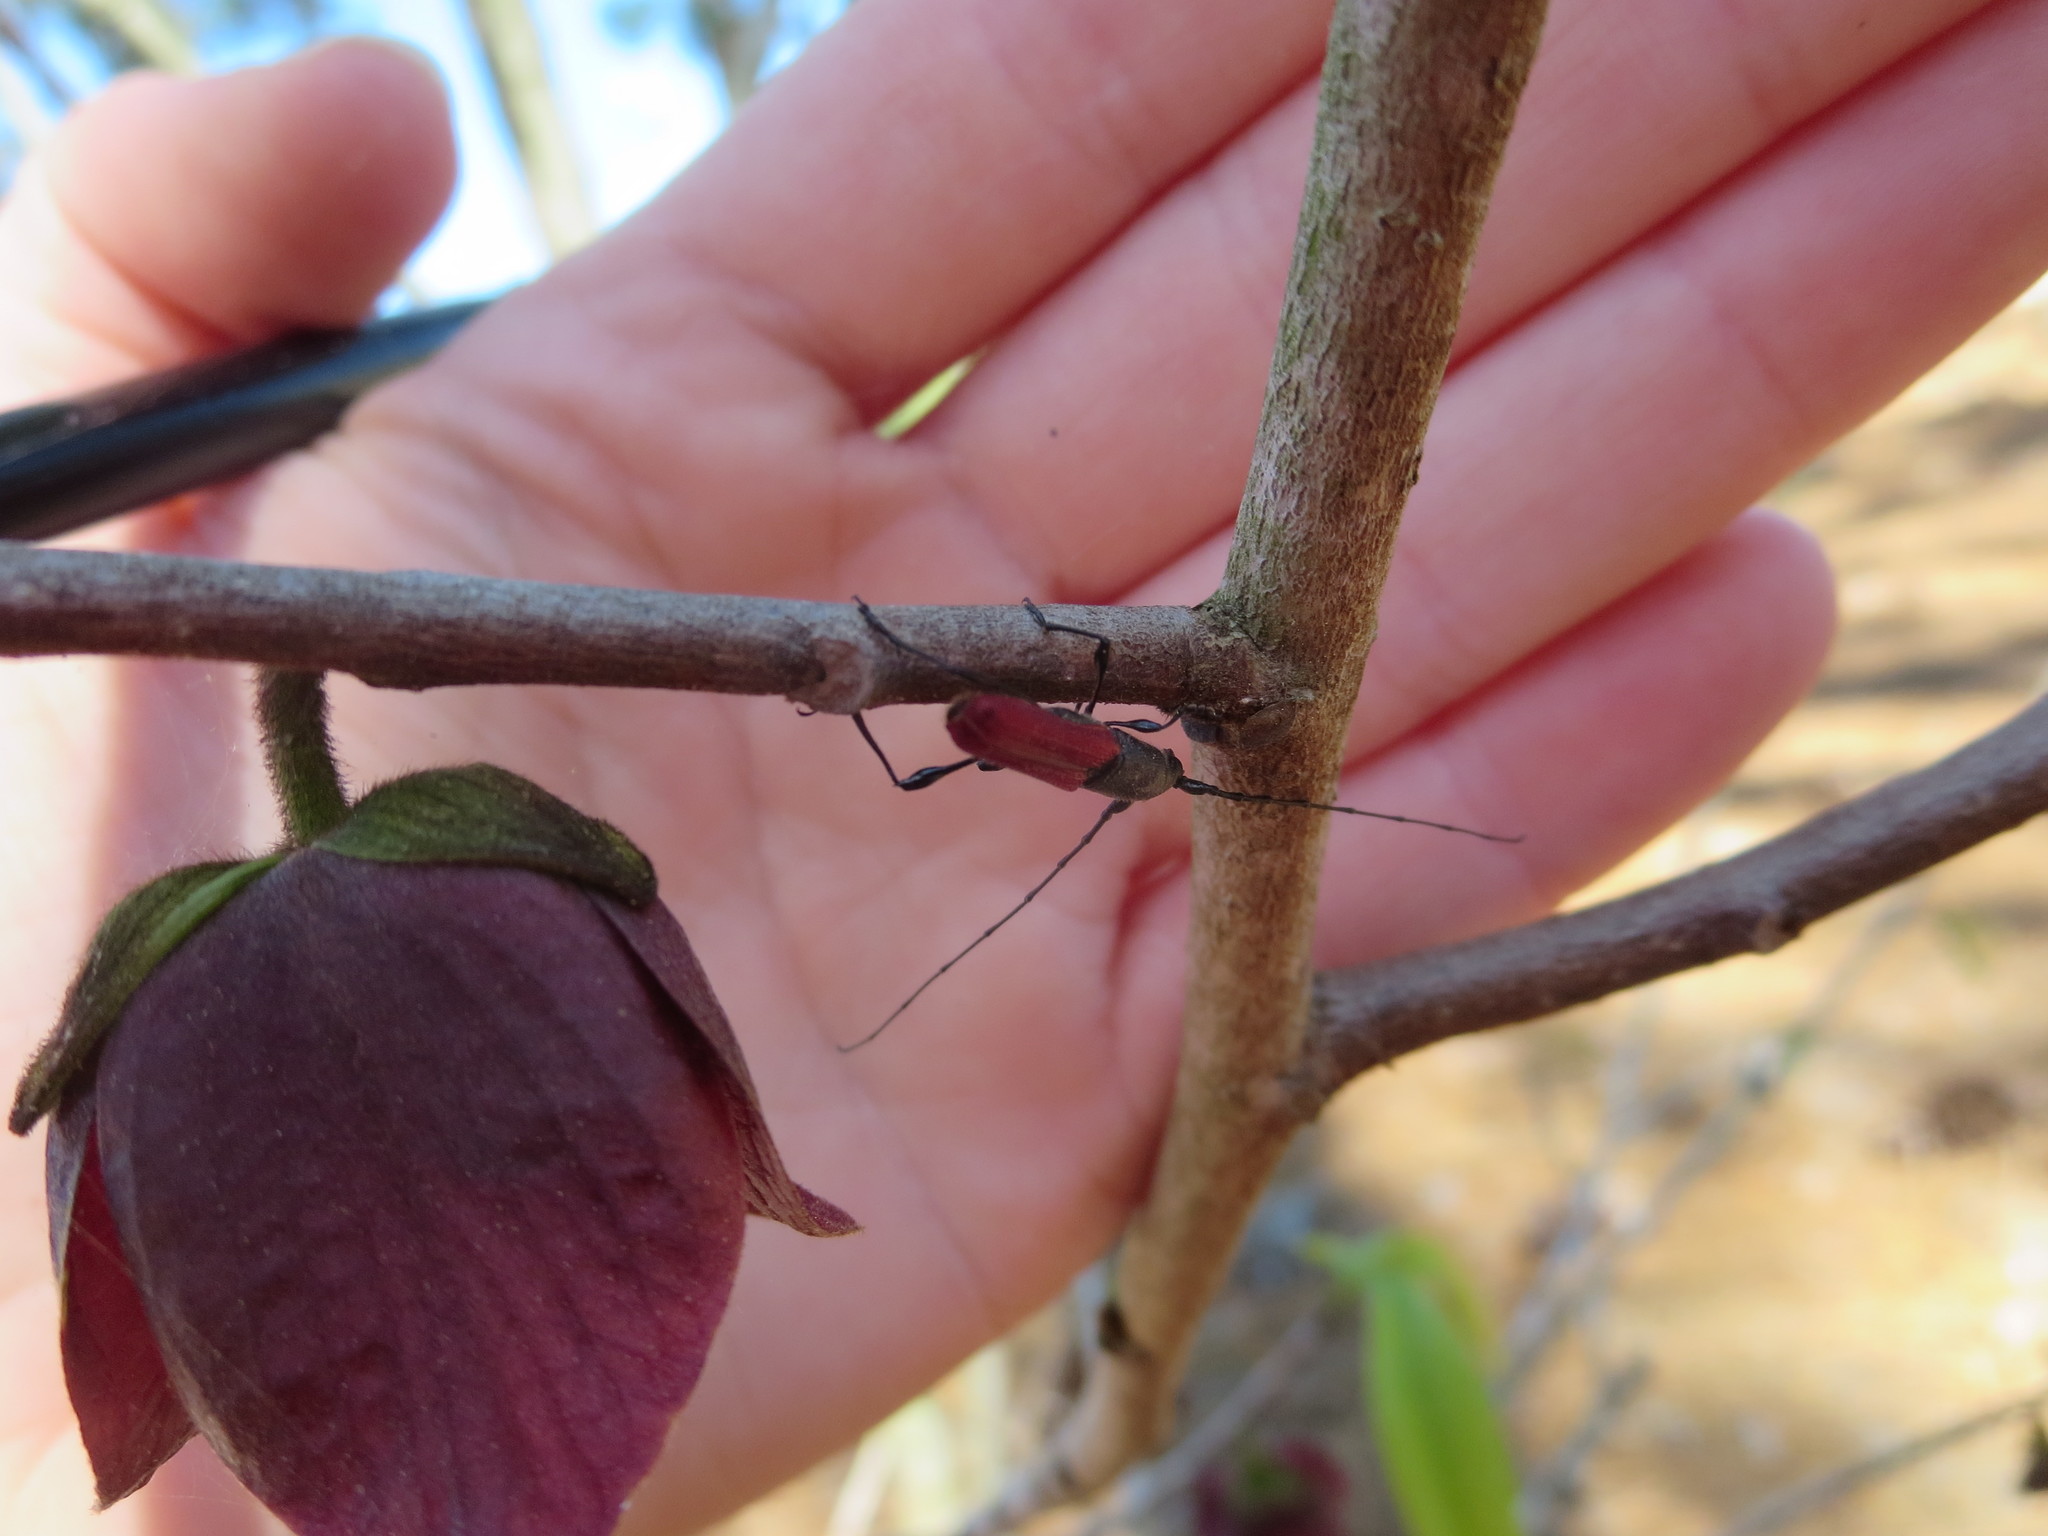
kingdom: Animalia
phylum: Arthropoda
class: Insecta
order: Coleoptera
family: Cerambycidae
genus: Ancylocera
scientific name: Ancylocera bicolor
